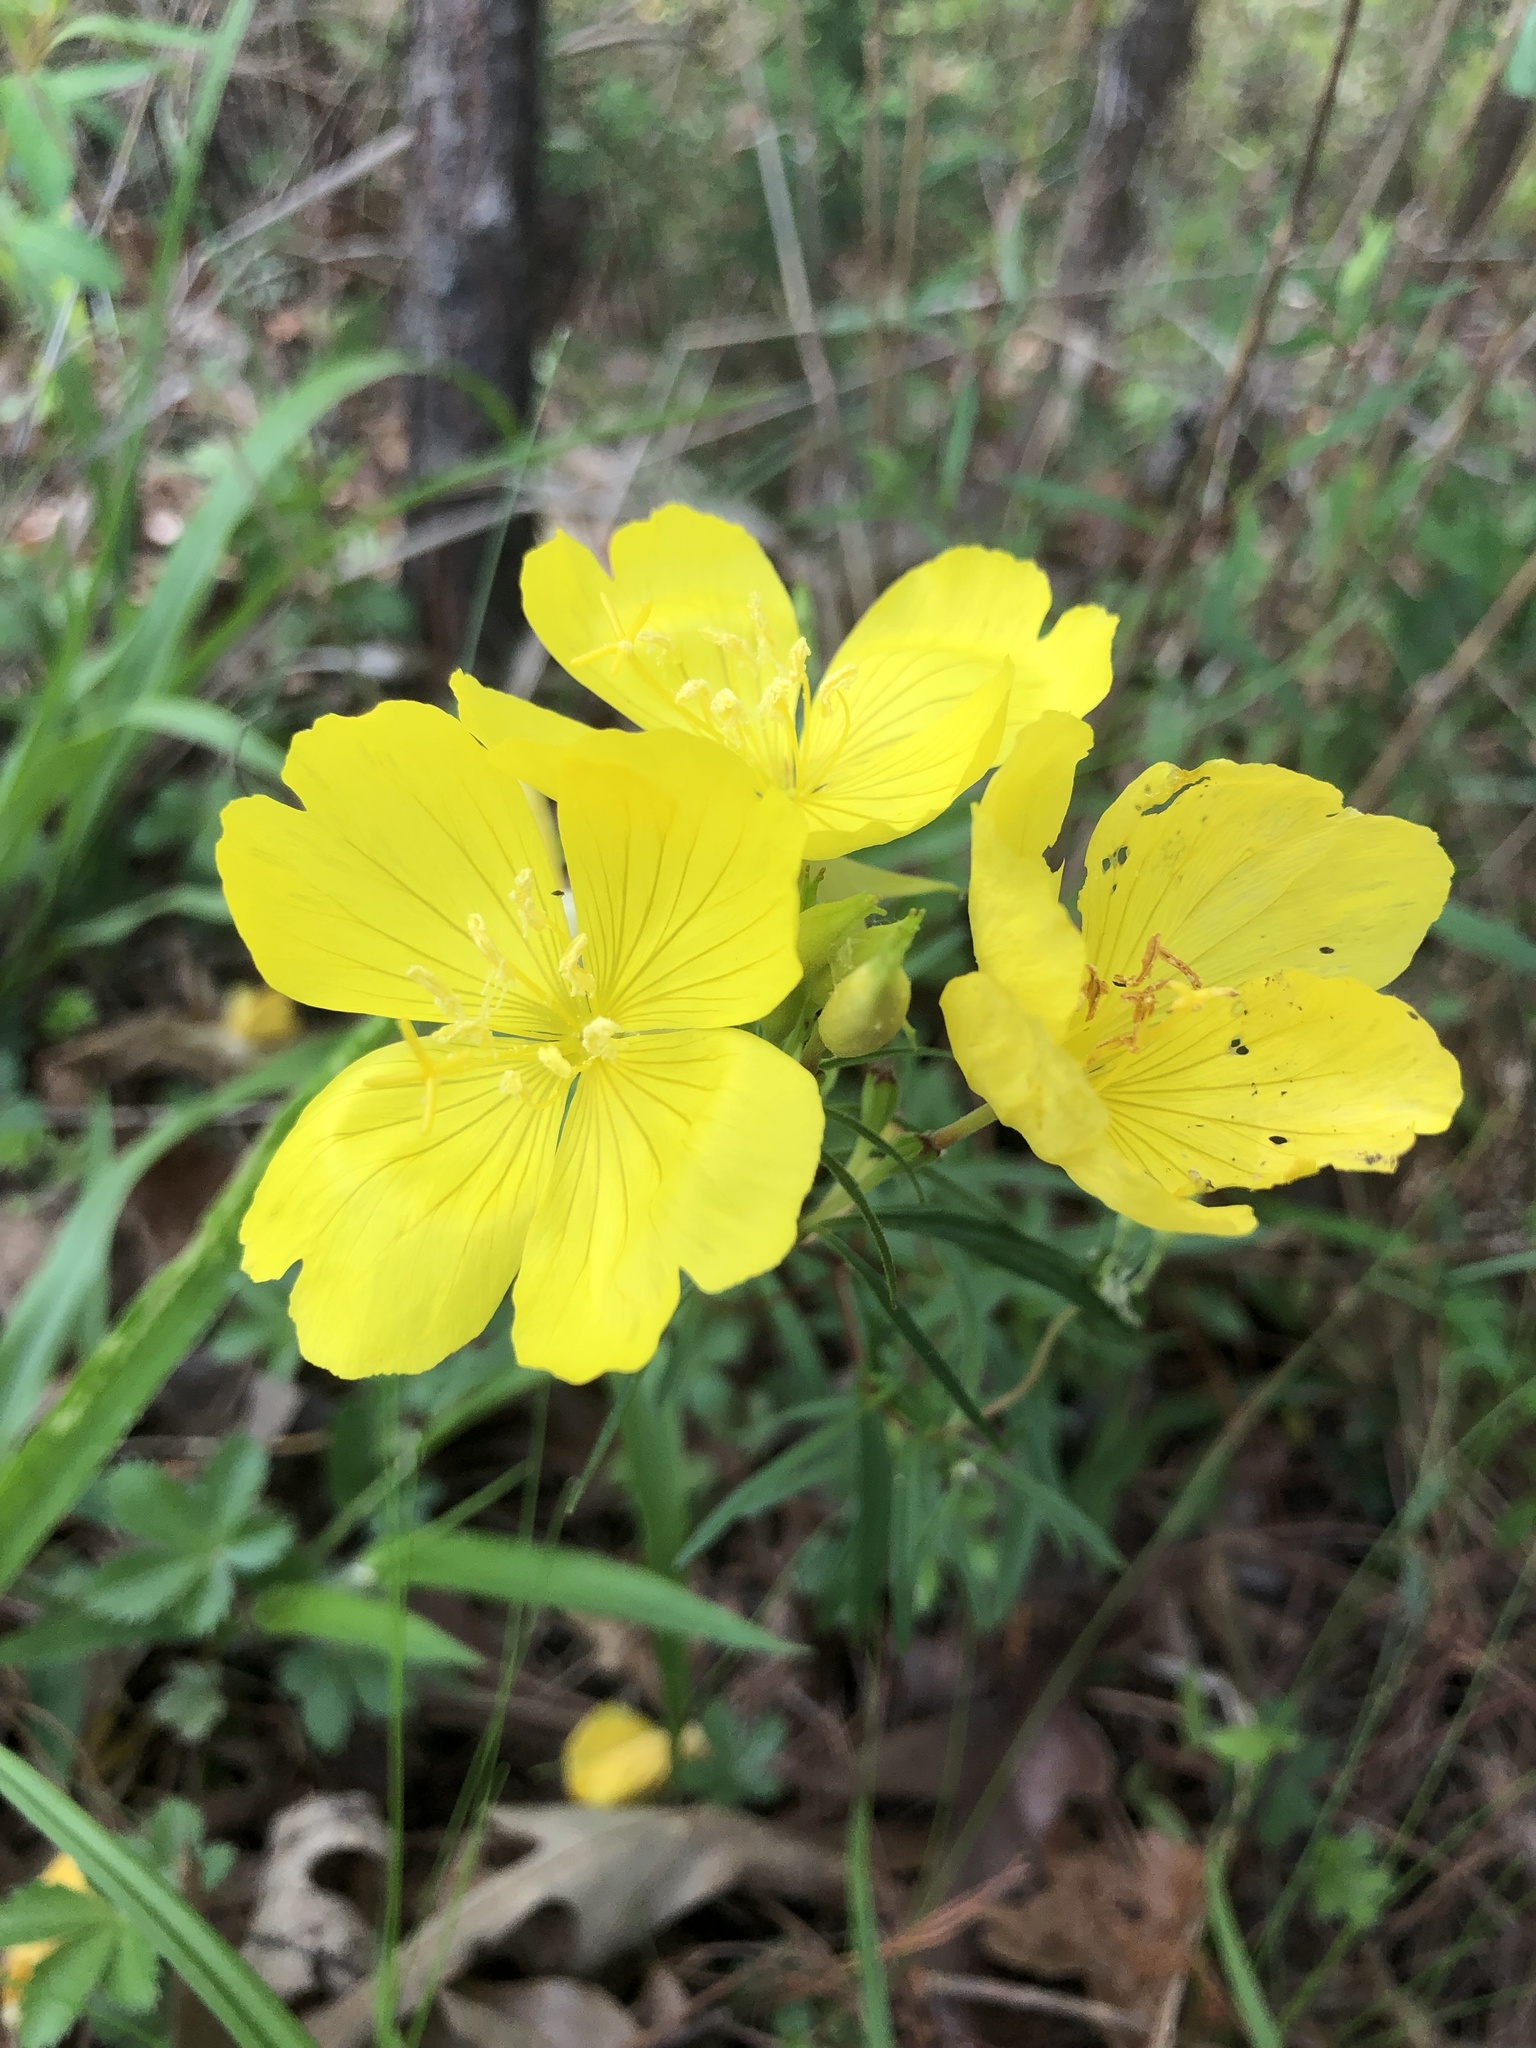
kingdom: Plantae
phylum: Tracheophyta
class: Magnoliopsida
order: Myrtales
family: Onagraceae
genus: Oenothera
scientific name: Oenothera fruticosa
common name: Southern sundrops
